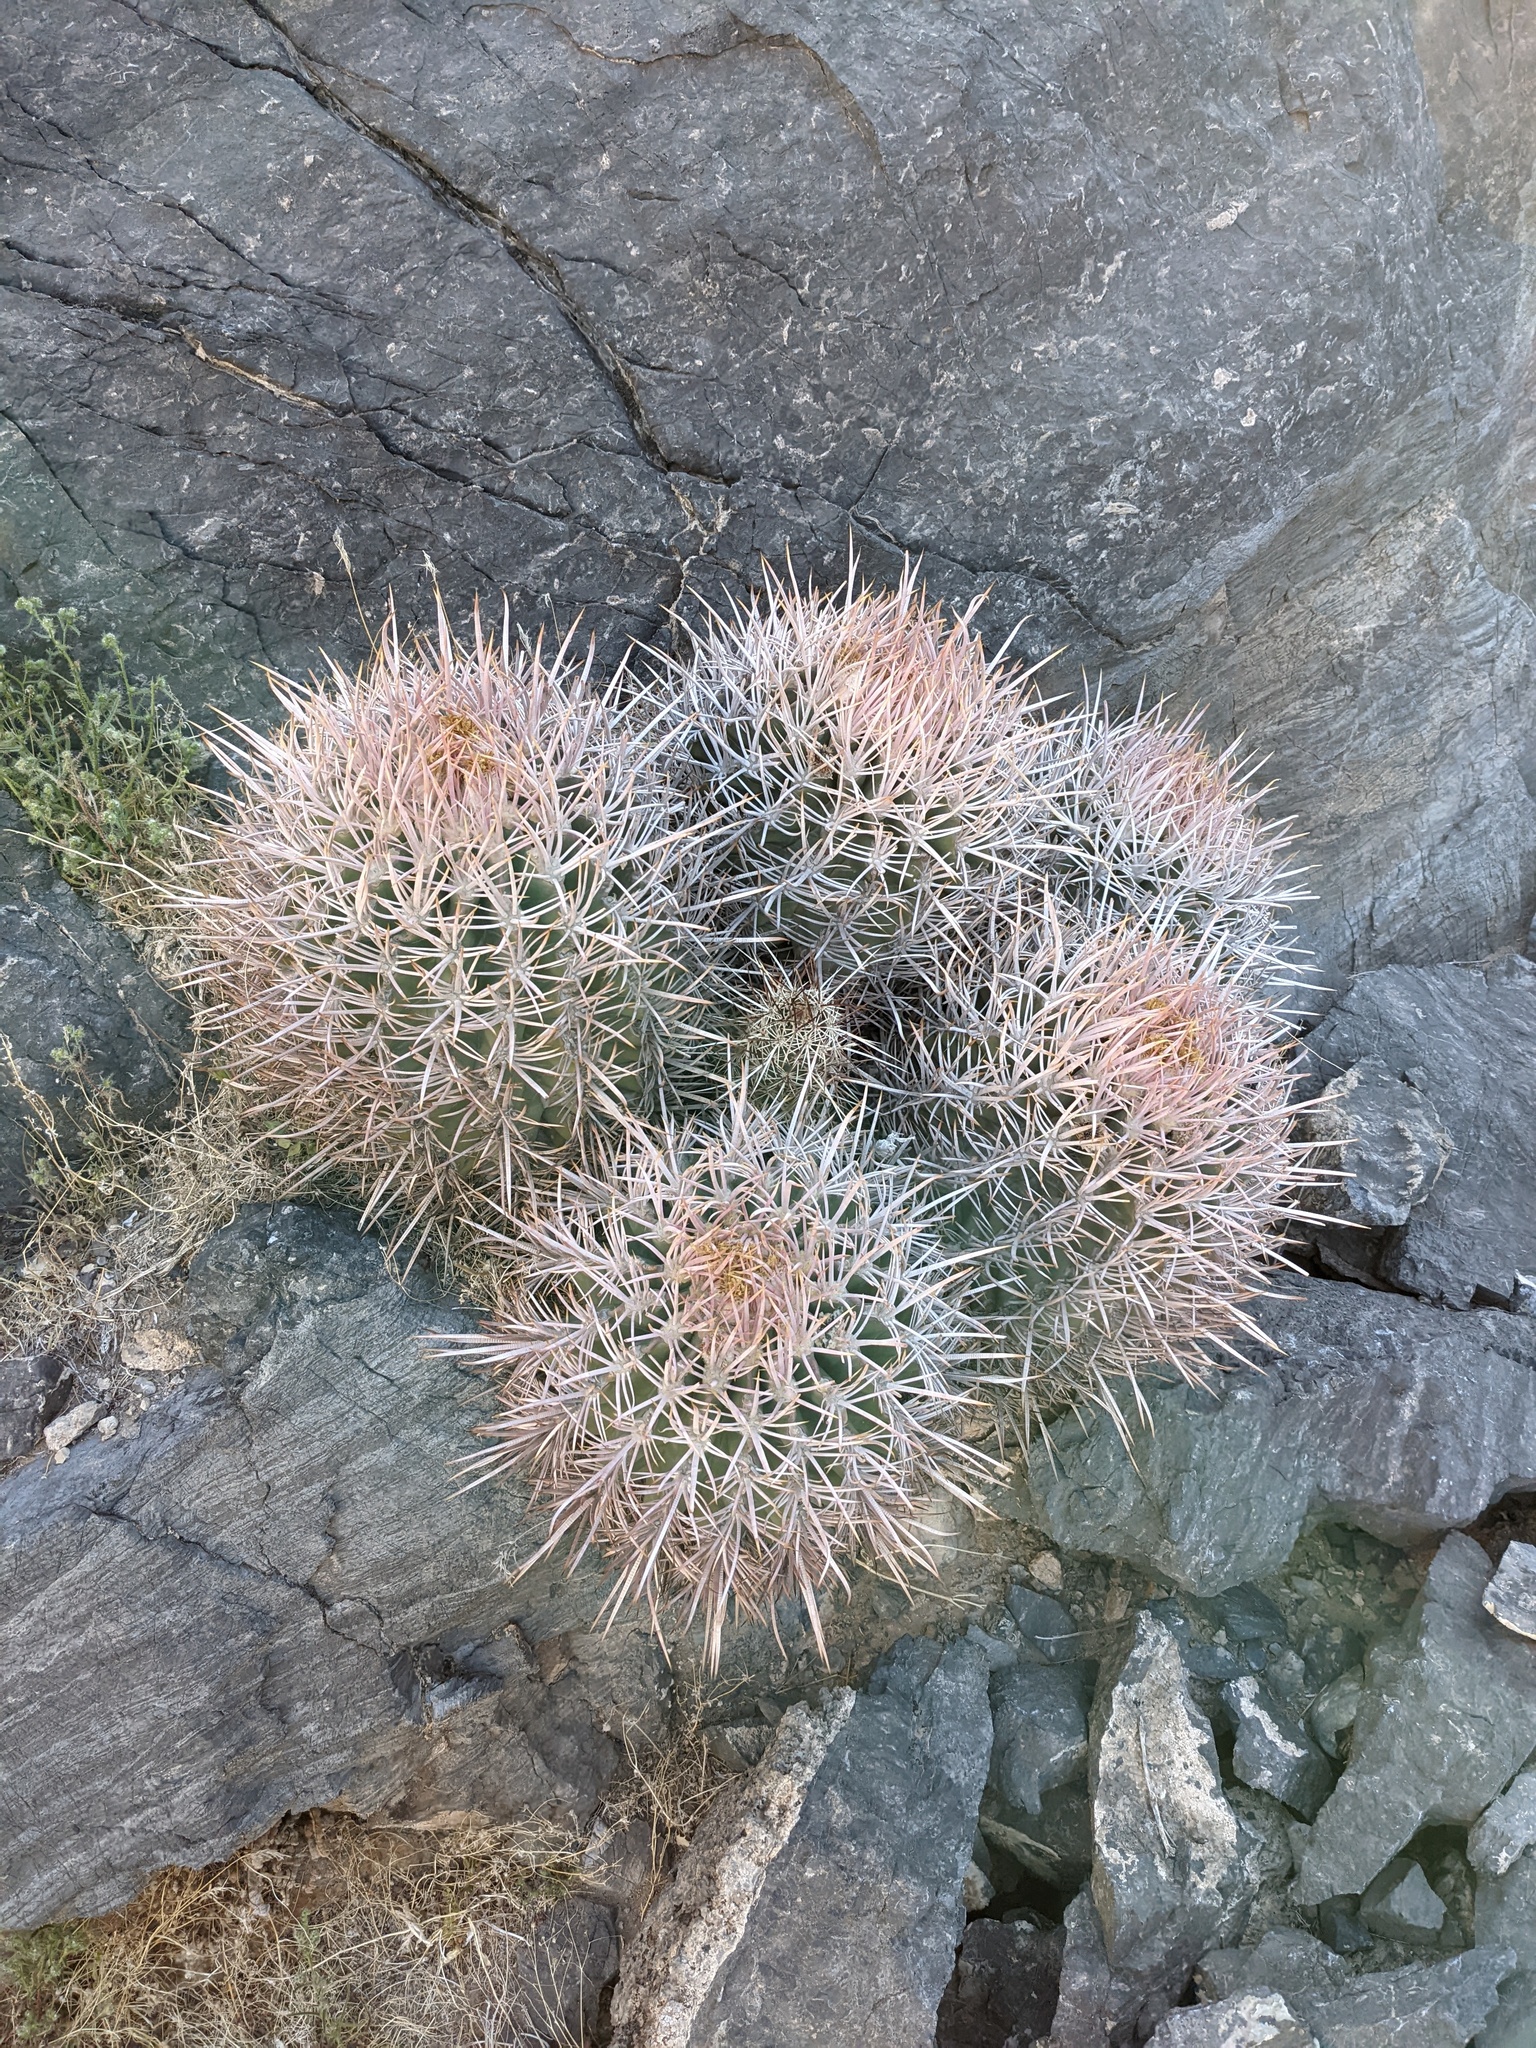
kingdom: Plantae
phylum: Tracheophyta
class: Magnoliopsida
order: Caryophyllales
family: Cactaceae
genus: Echinocactus
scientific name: Echinocactus polycephalus
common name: Cottontop cactus
